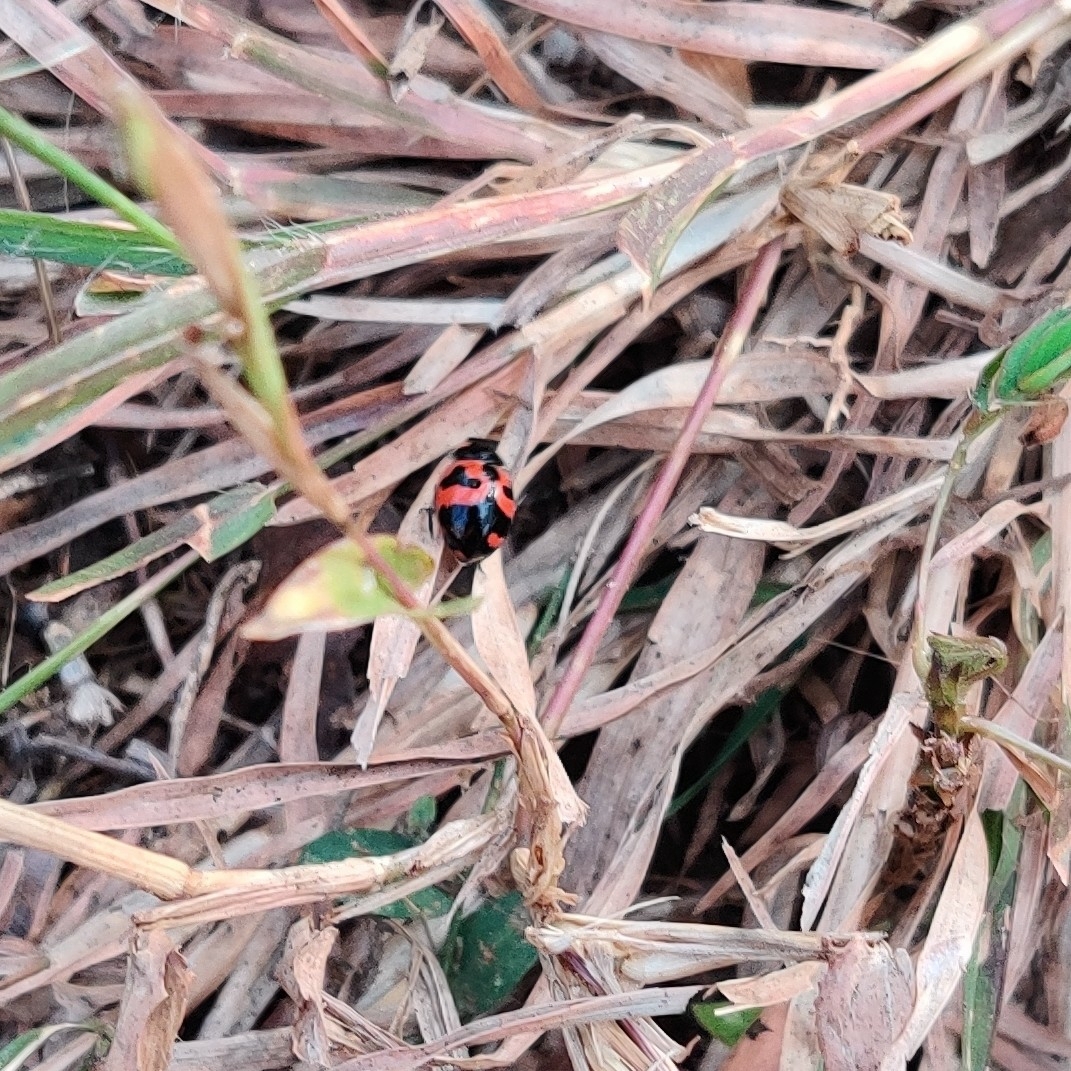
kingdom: Animalia
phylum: Arthropoda
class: Insecta
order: Coleoptera
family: Coccinellidae
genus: Coccinella
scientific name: Coccinella transversalis
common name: Transverse lady beetle
